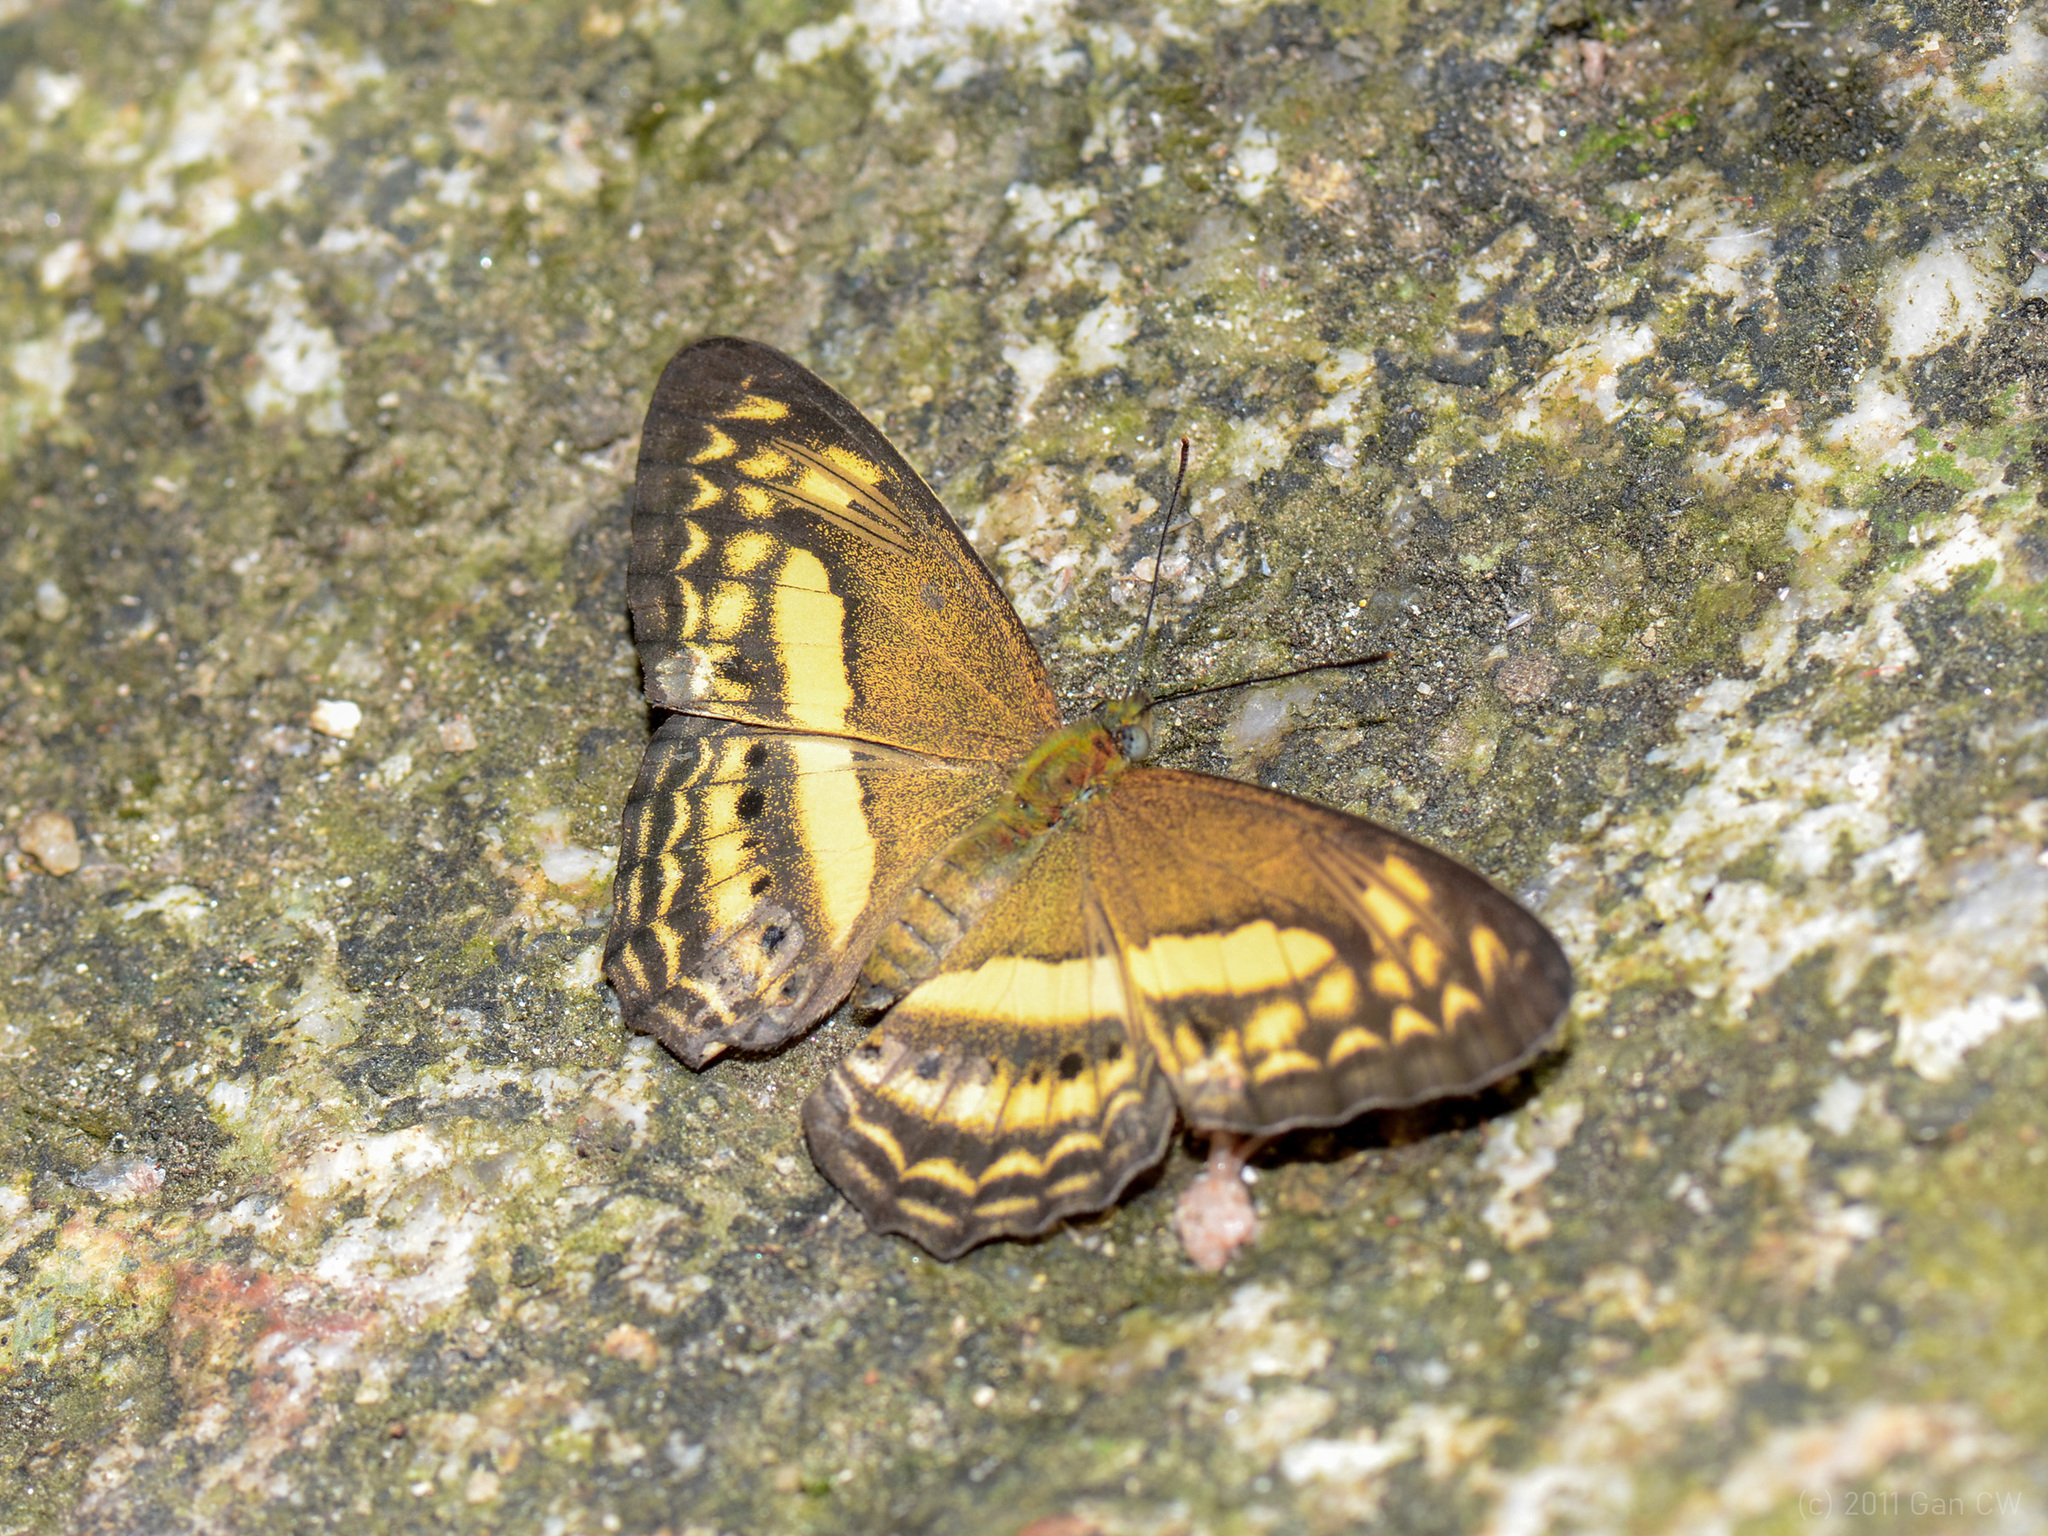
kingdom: Animalia
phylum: Arthropoda
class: Insecta
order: Lepidoptera
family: Nymphalidae
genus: Algia
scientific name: Algia fasciata
